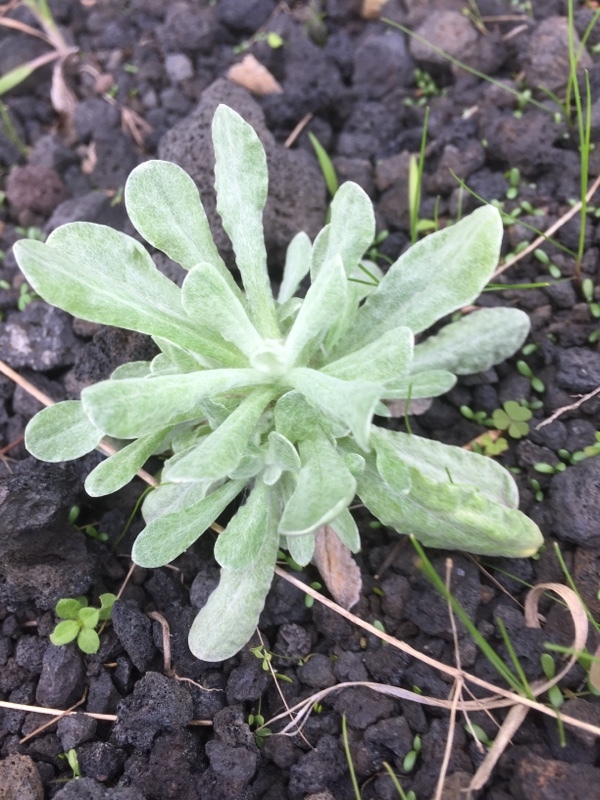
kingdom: Plantae
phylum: Tracheophyta
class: Magnoliopsida
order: Asterales
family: Asteraceae
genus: Helichrysum
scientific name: Helichrysum luteoalbum
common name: Daisy
